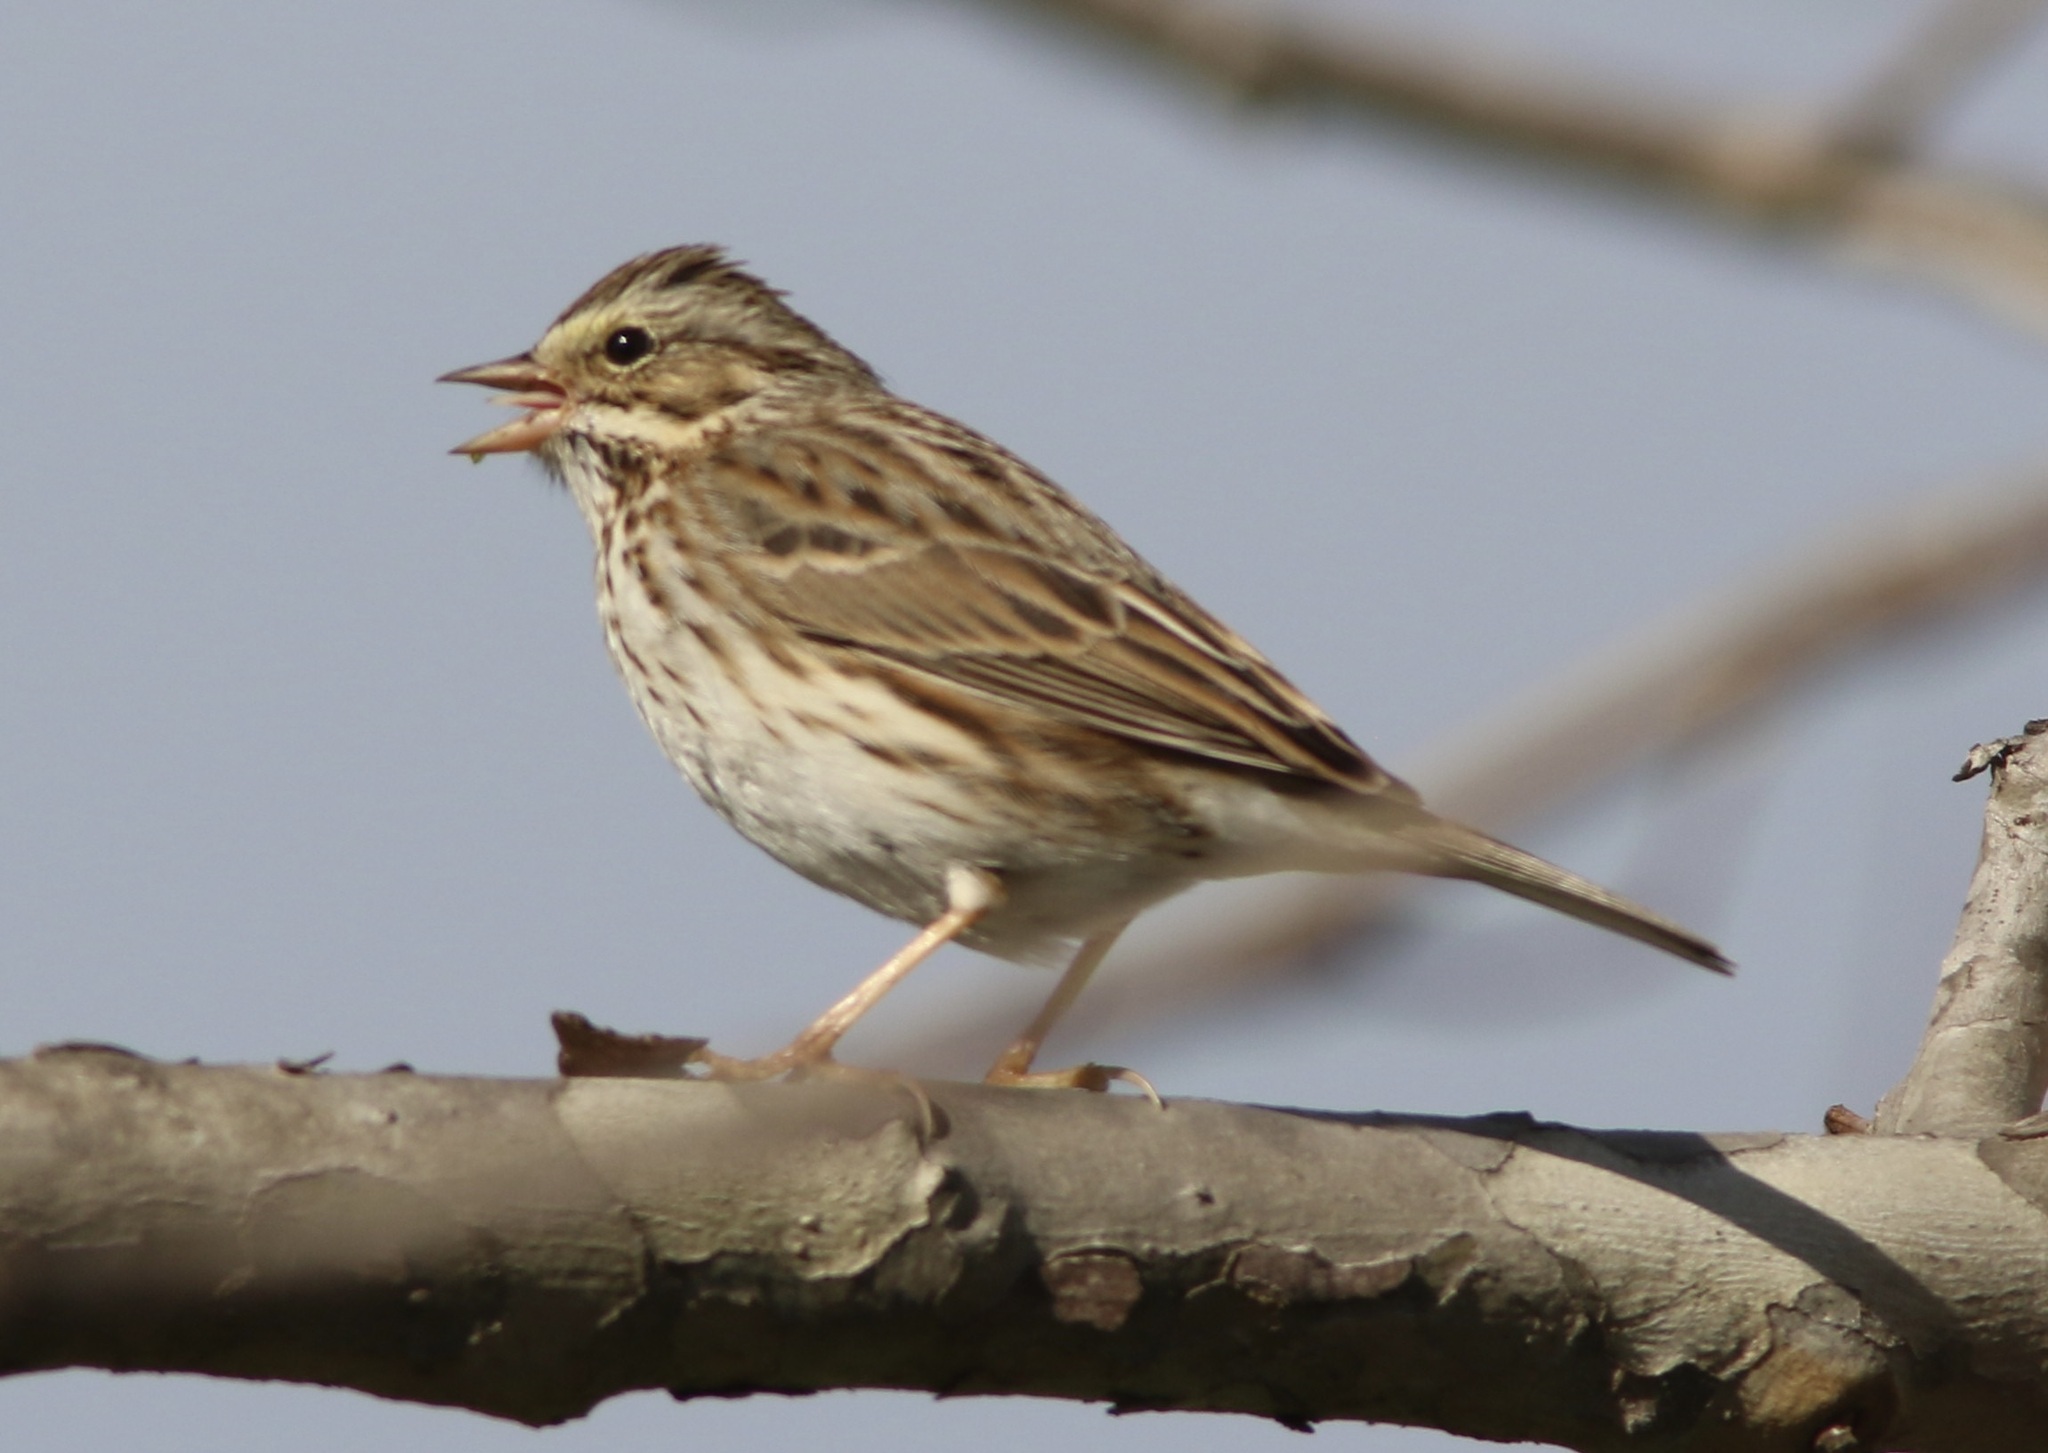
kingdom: Animalia
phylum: Chordata
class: Aves
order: Passeriformes
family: Passerellidae
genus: Passerculus
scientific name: Passerculus sandwichensis
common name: Savannah sparrow
